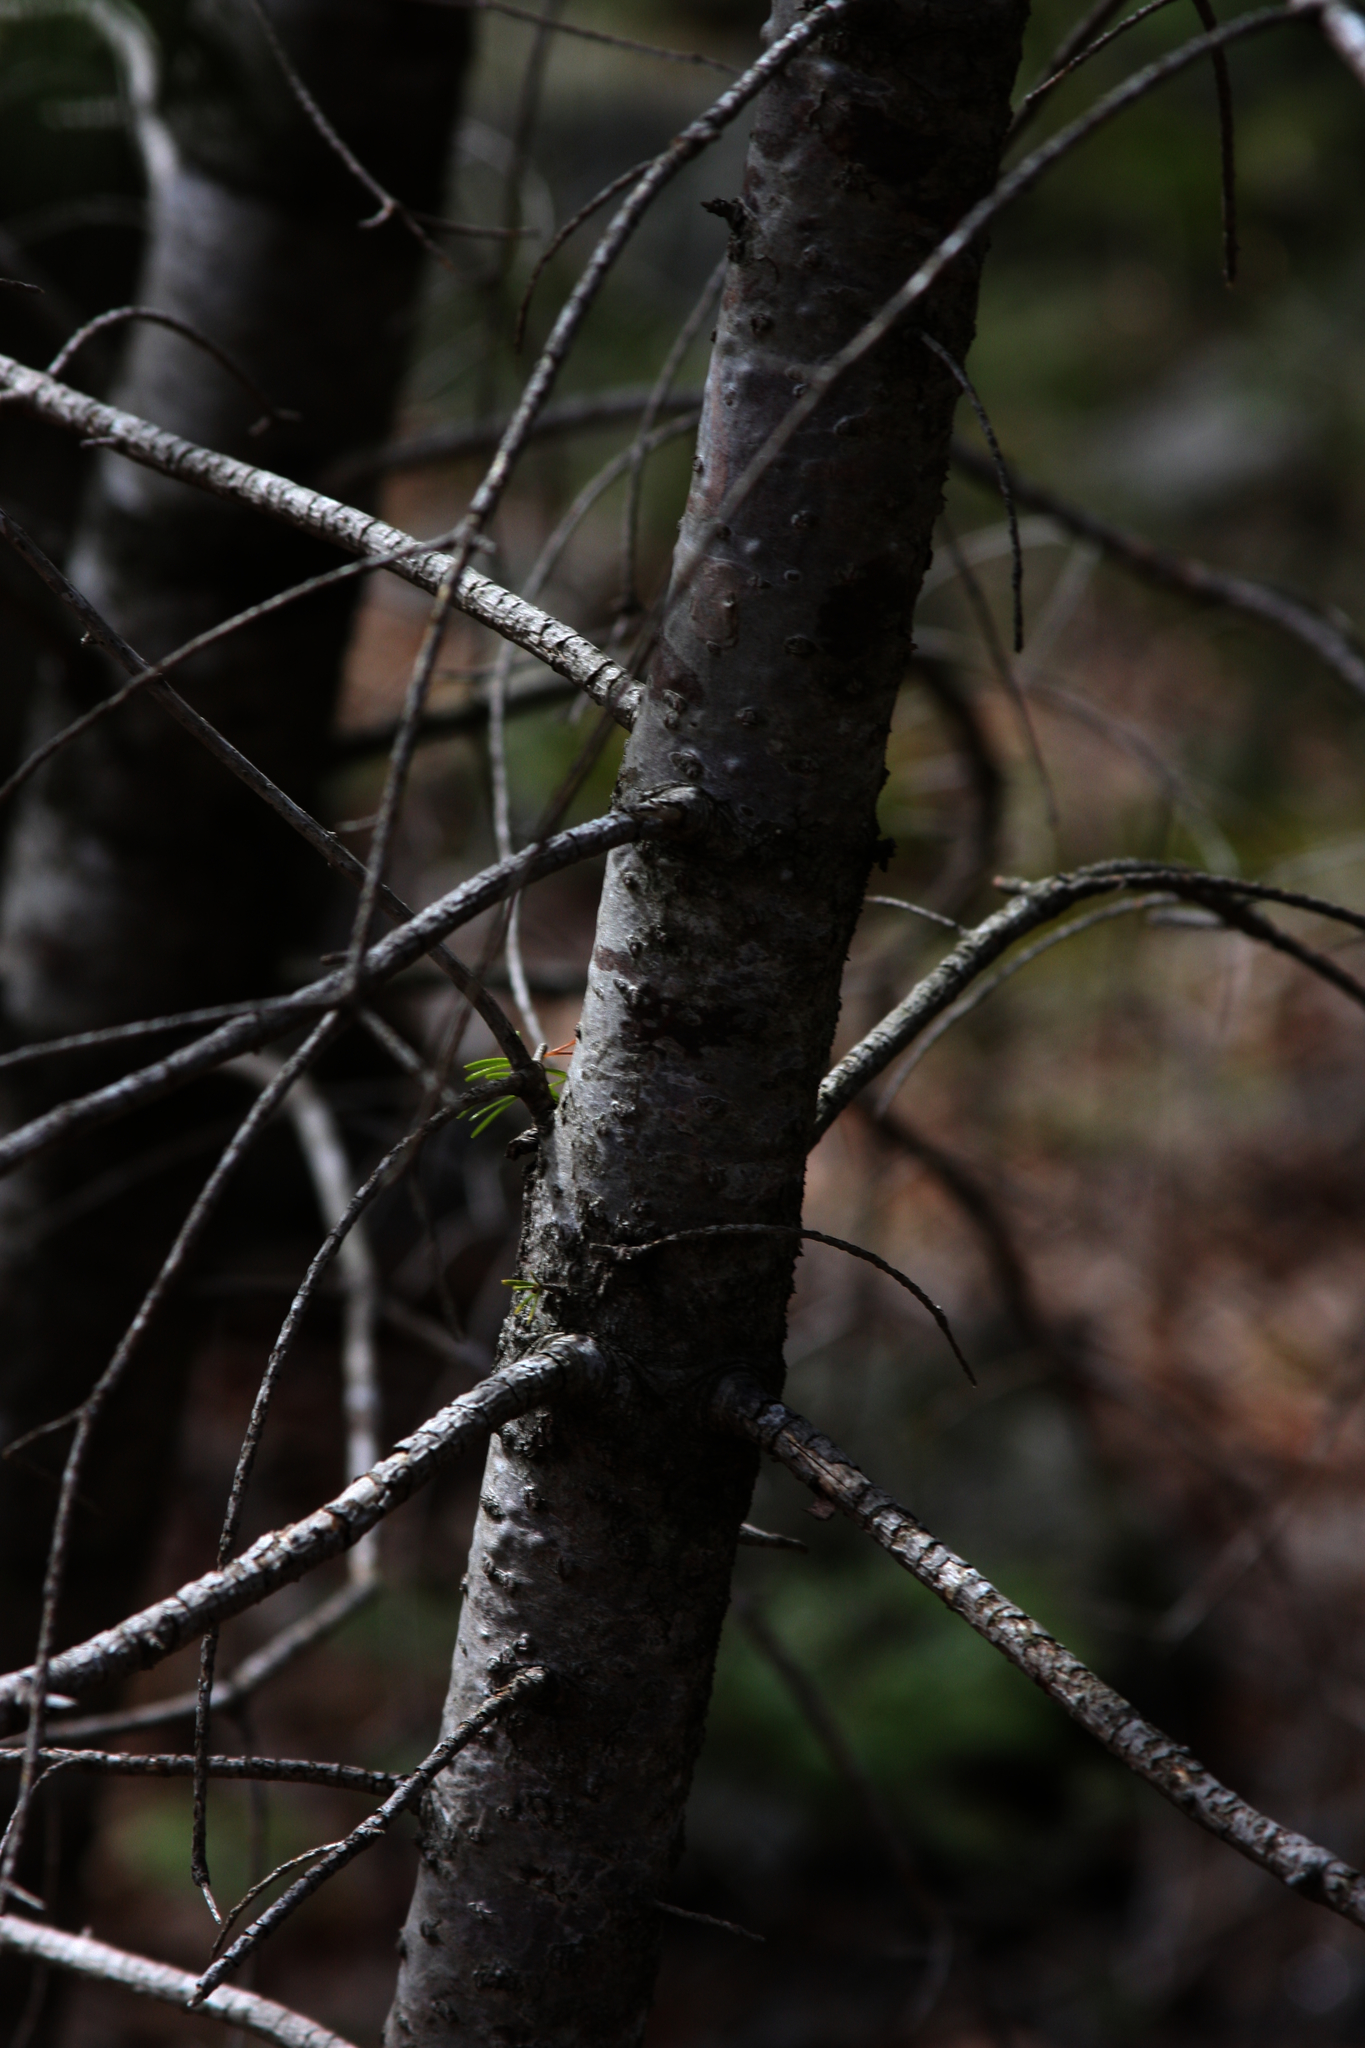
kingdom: Plantae
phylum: Tracheophyta
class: Pinopsida
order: Pinales
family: Pinaceae
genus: Abies
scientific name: Abies balsamea
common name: Balsam fir
